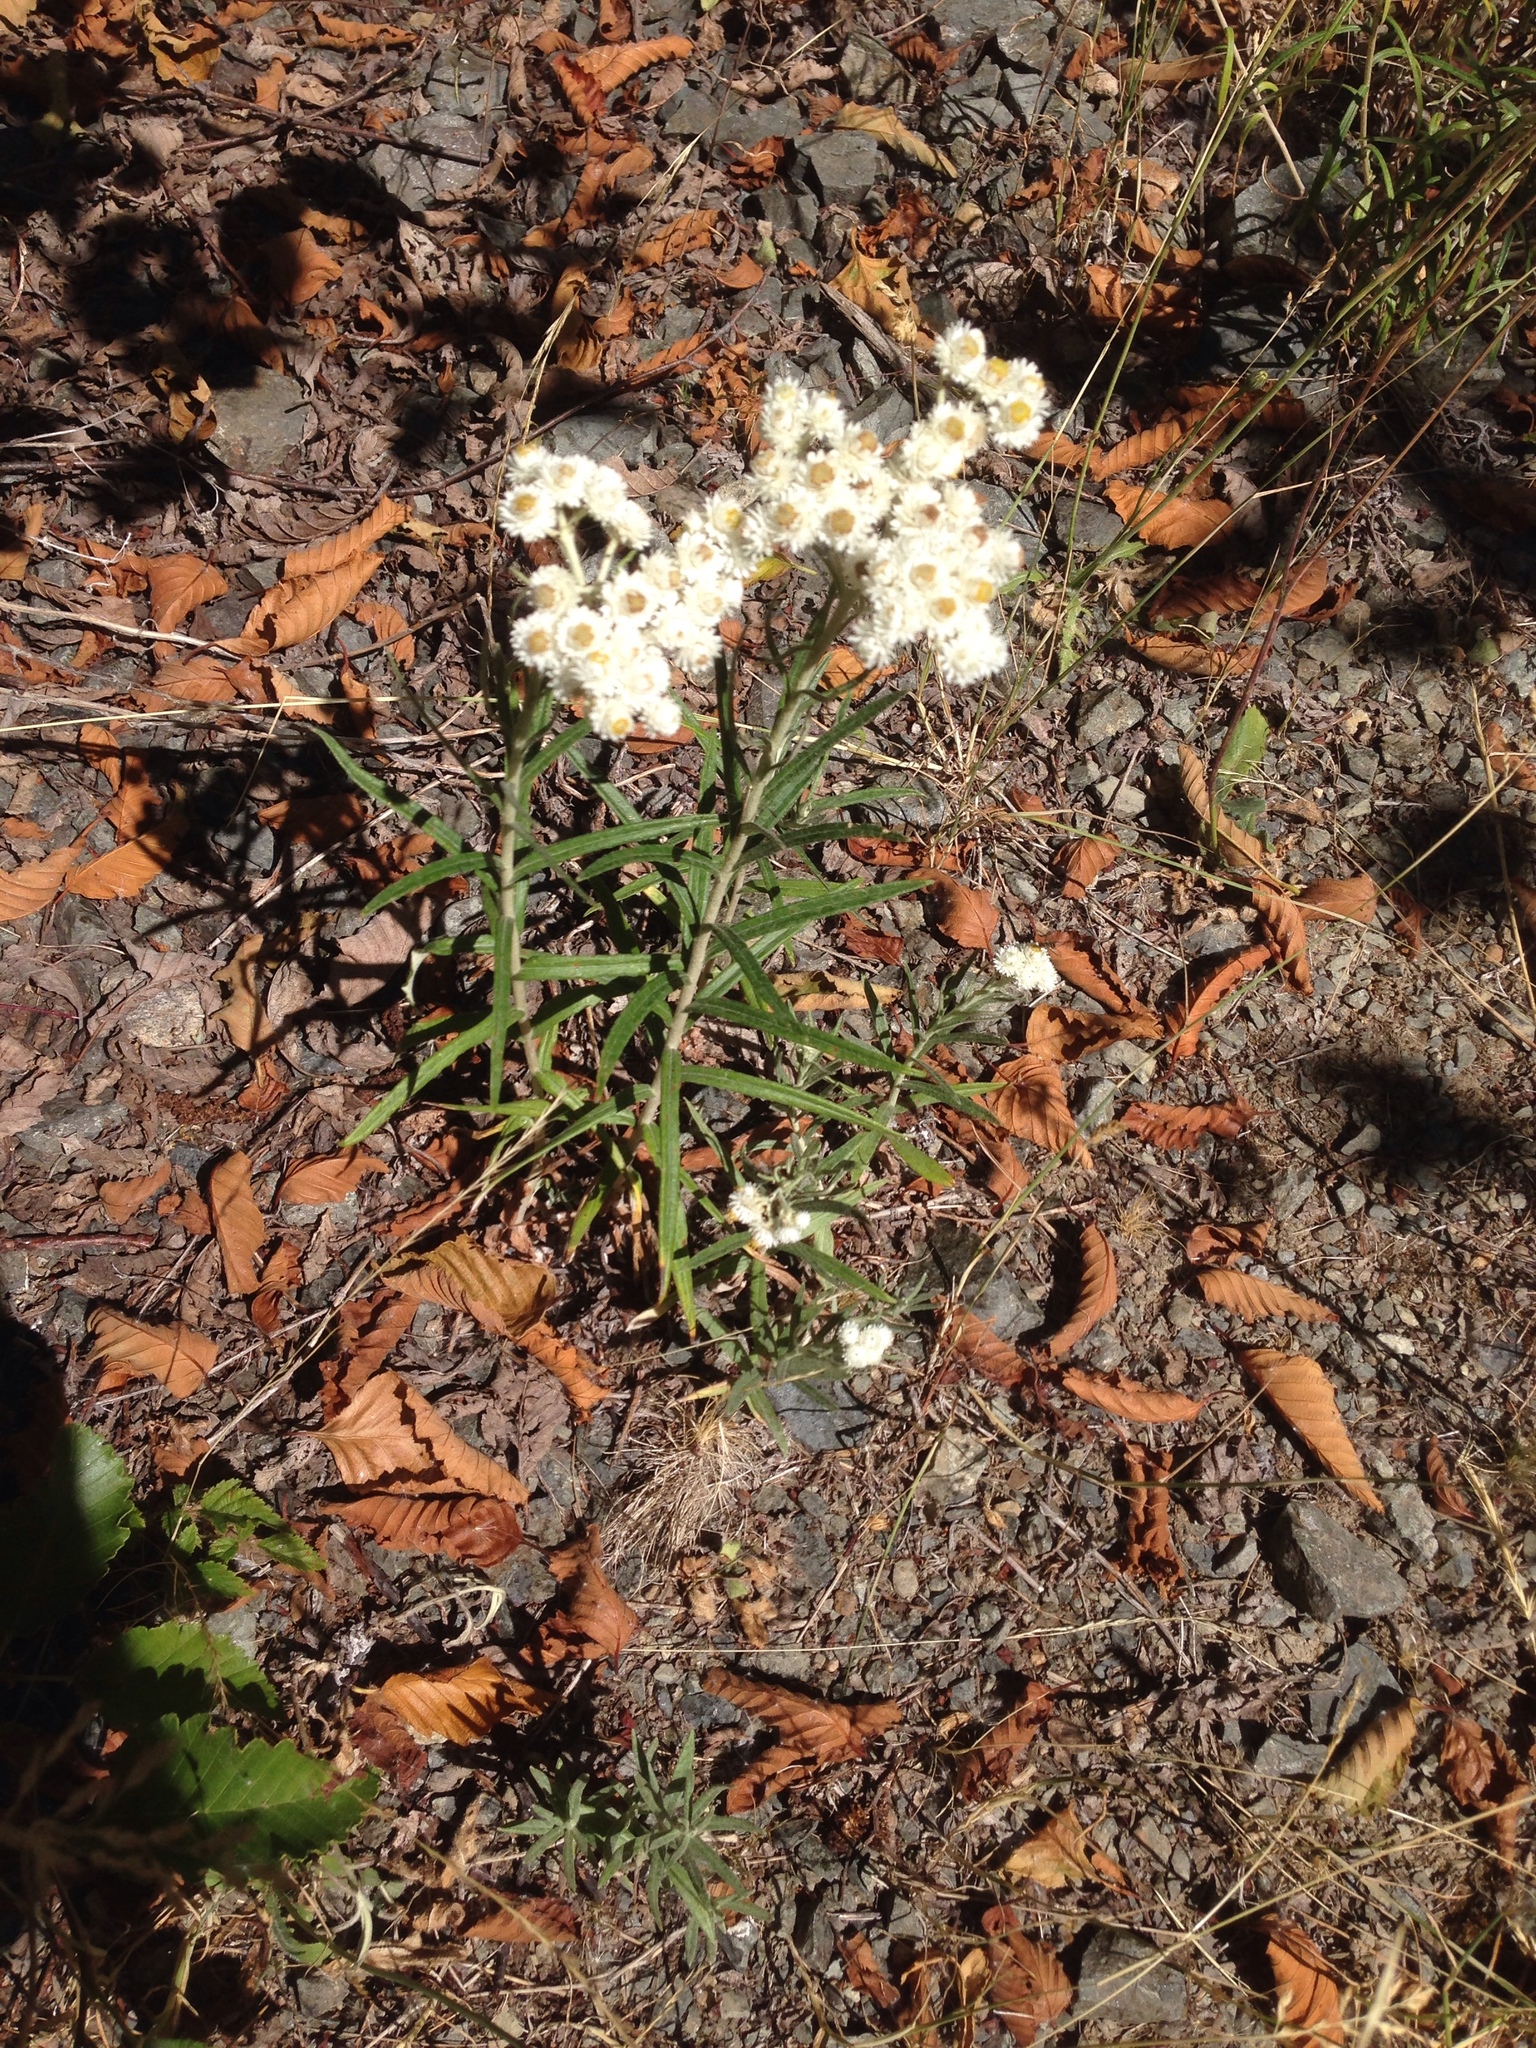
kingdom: Plantae
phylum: Tracheophyta
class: Magnoliopsida
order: Asterales
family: Asteraceae
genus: Anaphalis
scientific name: Anaphalis margaritacea
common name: Pearly everlasting
